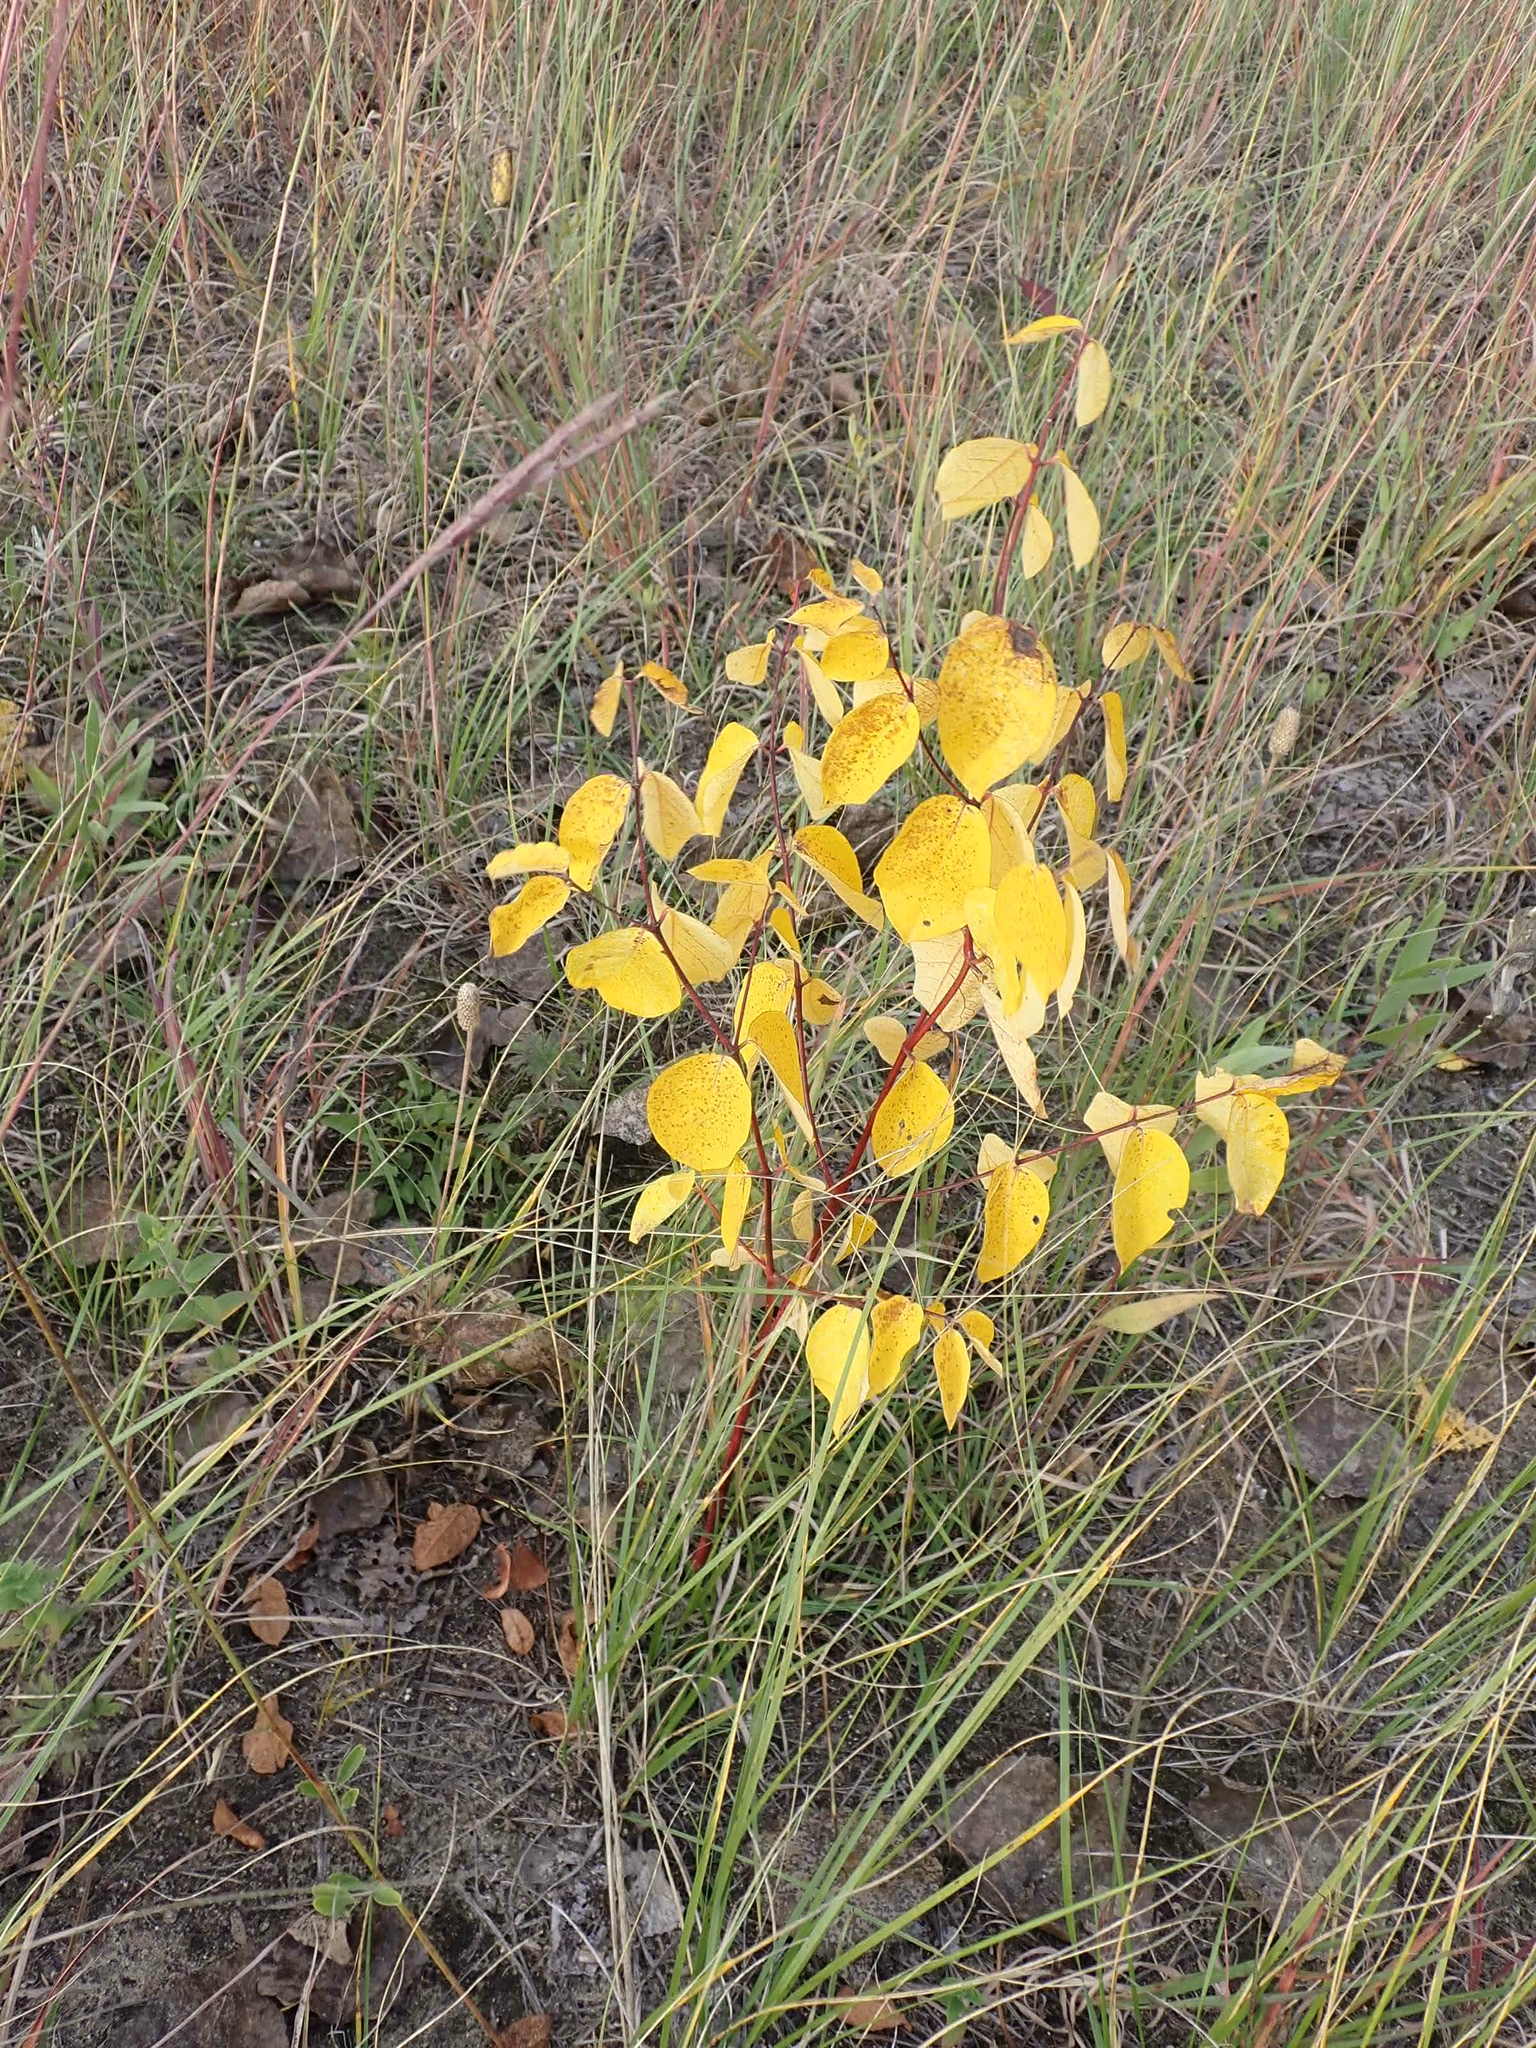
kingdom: Plantae
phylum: Tracheophyta
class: Magnoliopsida
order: Gentianales
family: Apocynaceae
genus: Apocynum
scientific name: Apocynum androsaemifolium
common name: Spreading dogbane
